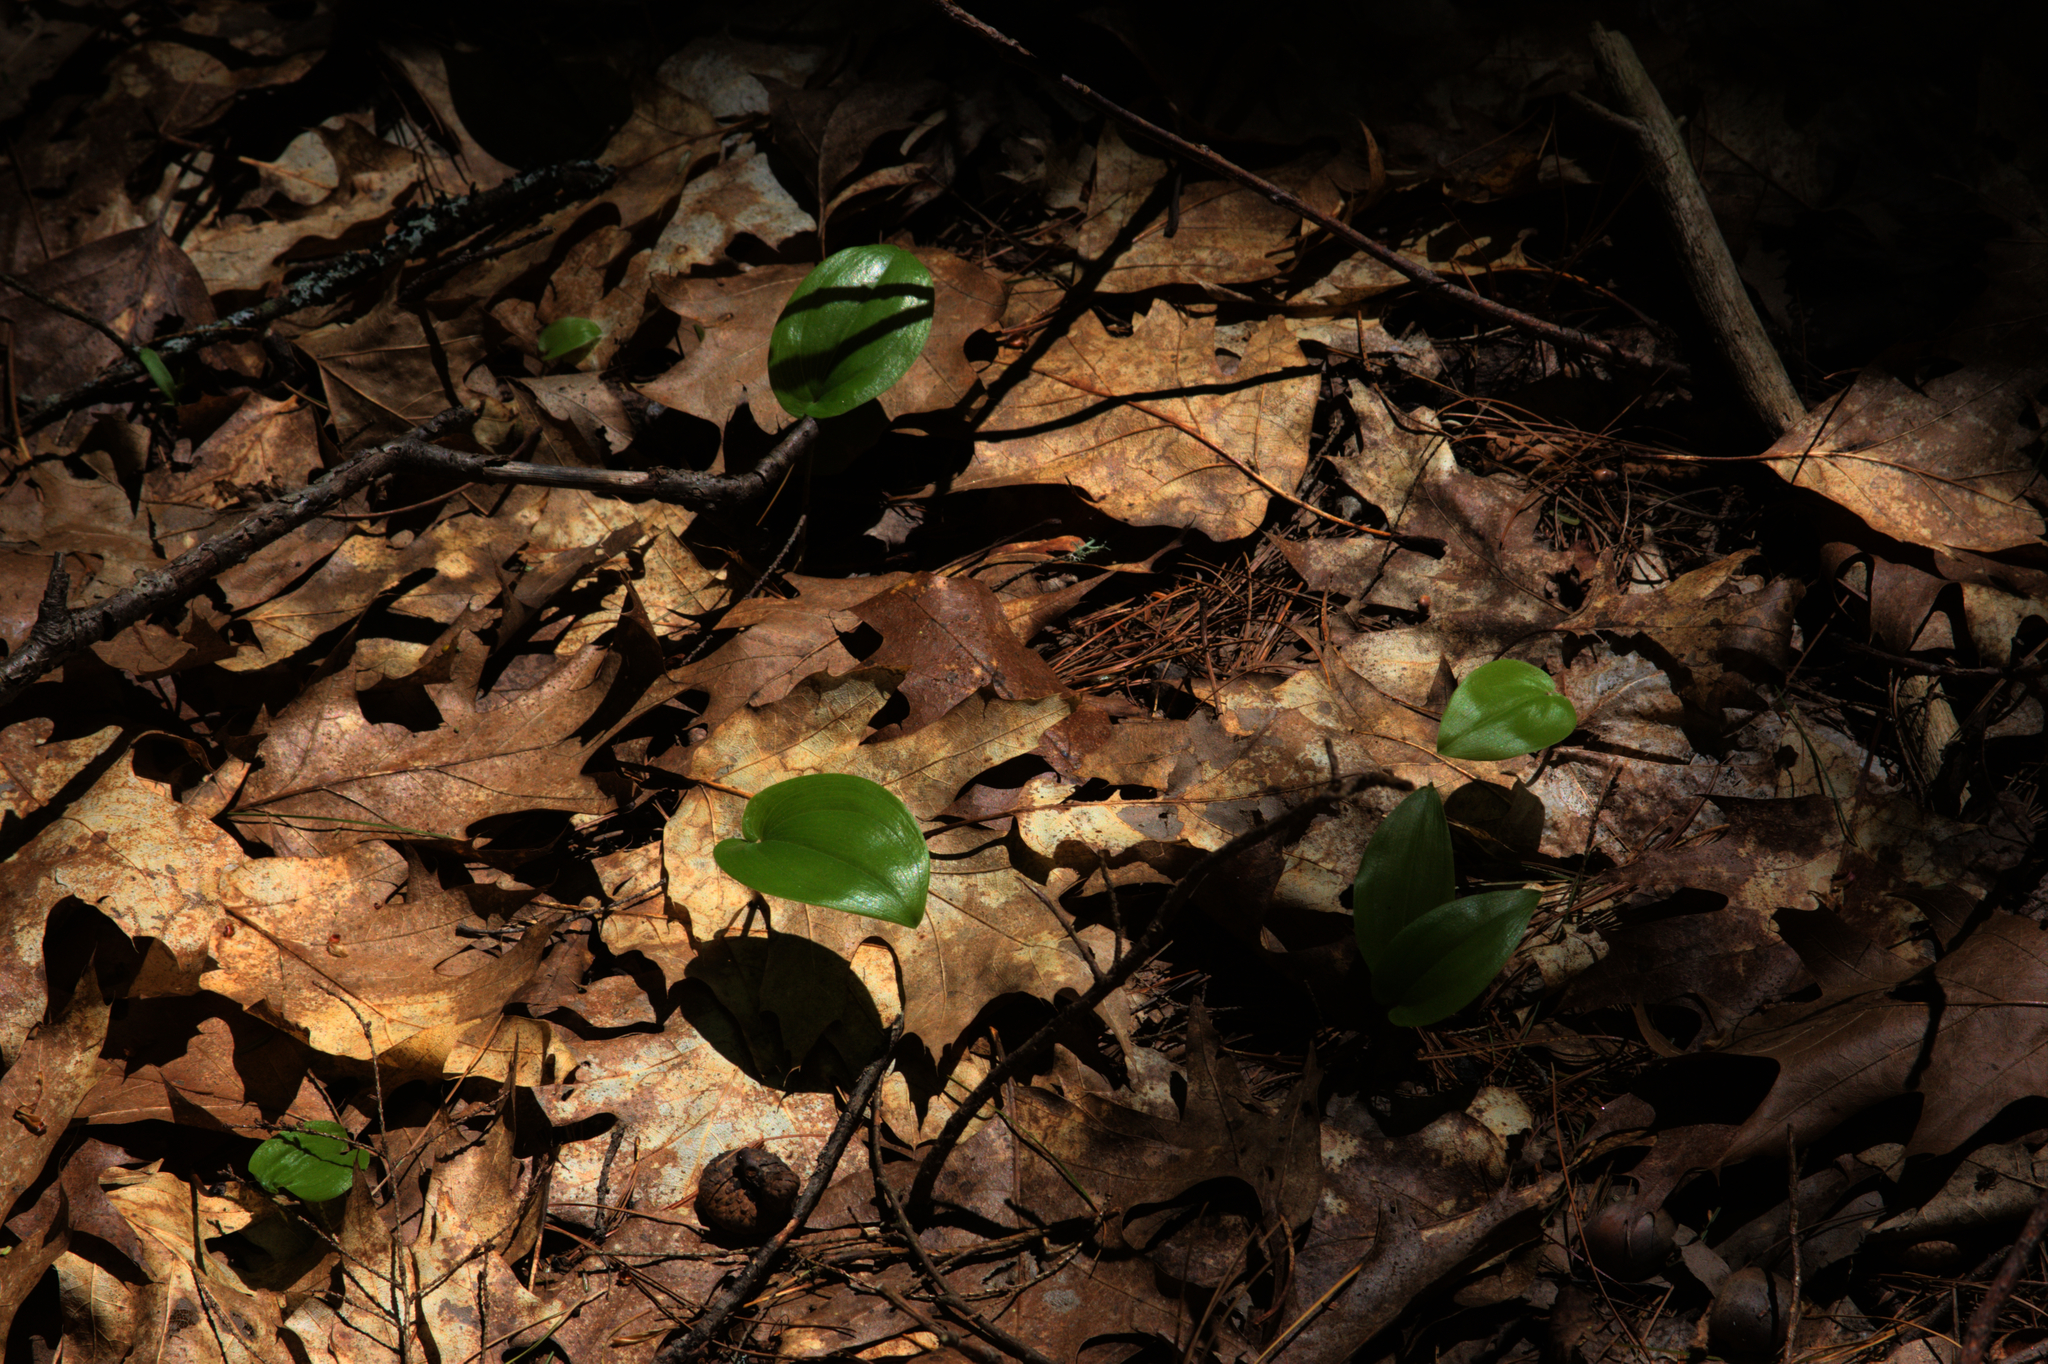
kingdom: Plantae
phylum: Tracheophyta
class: Liliopsida
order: Asparagales
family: Asparagaceae
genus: Maianthemum
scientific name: Maianthemum canadense
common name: False lily-of-the-valley
